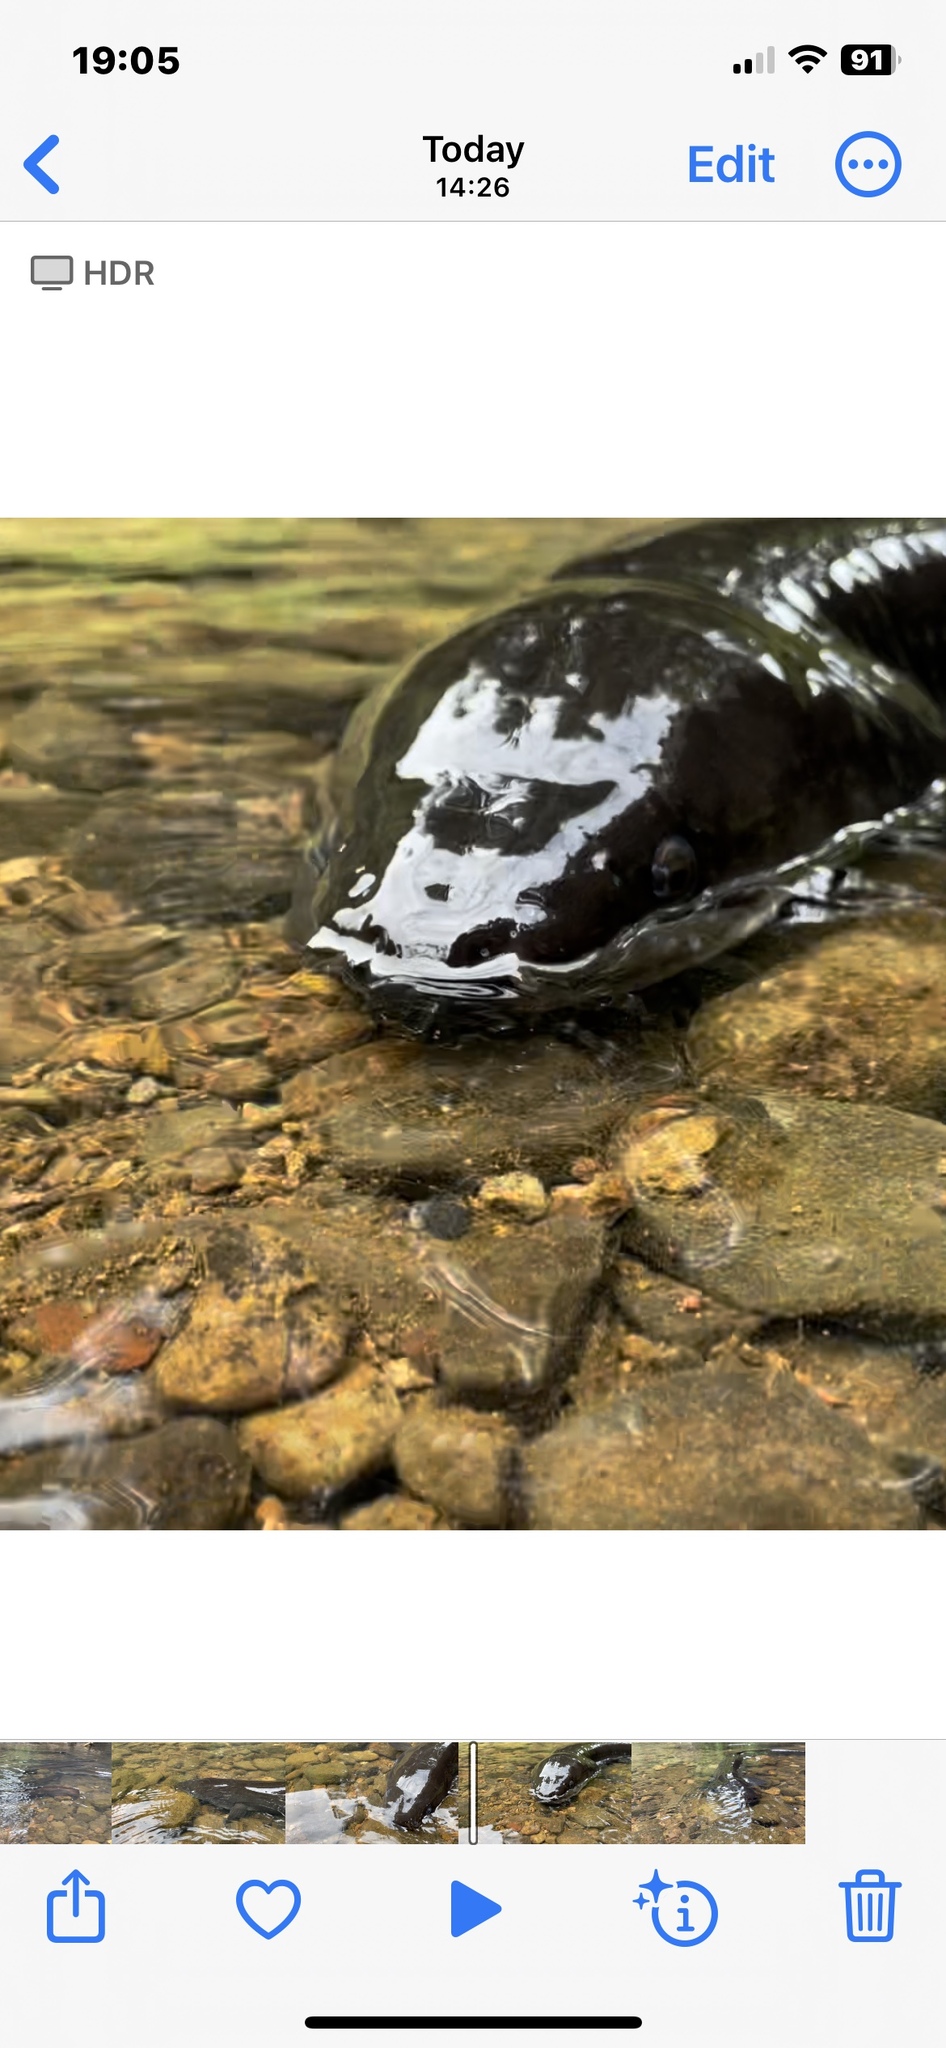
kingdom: Animalia
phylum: Chordata
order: Anguilliformes
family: Anguillidae
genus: Anguilla
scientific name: Anguilla dieffenbachii
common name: New zealand longfin eel
